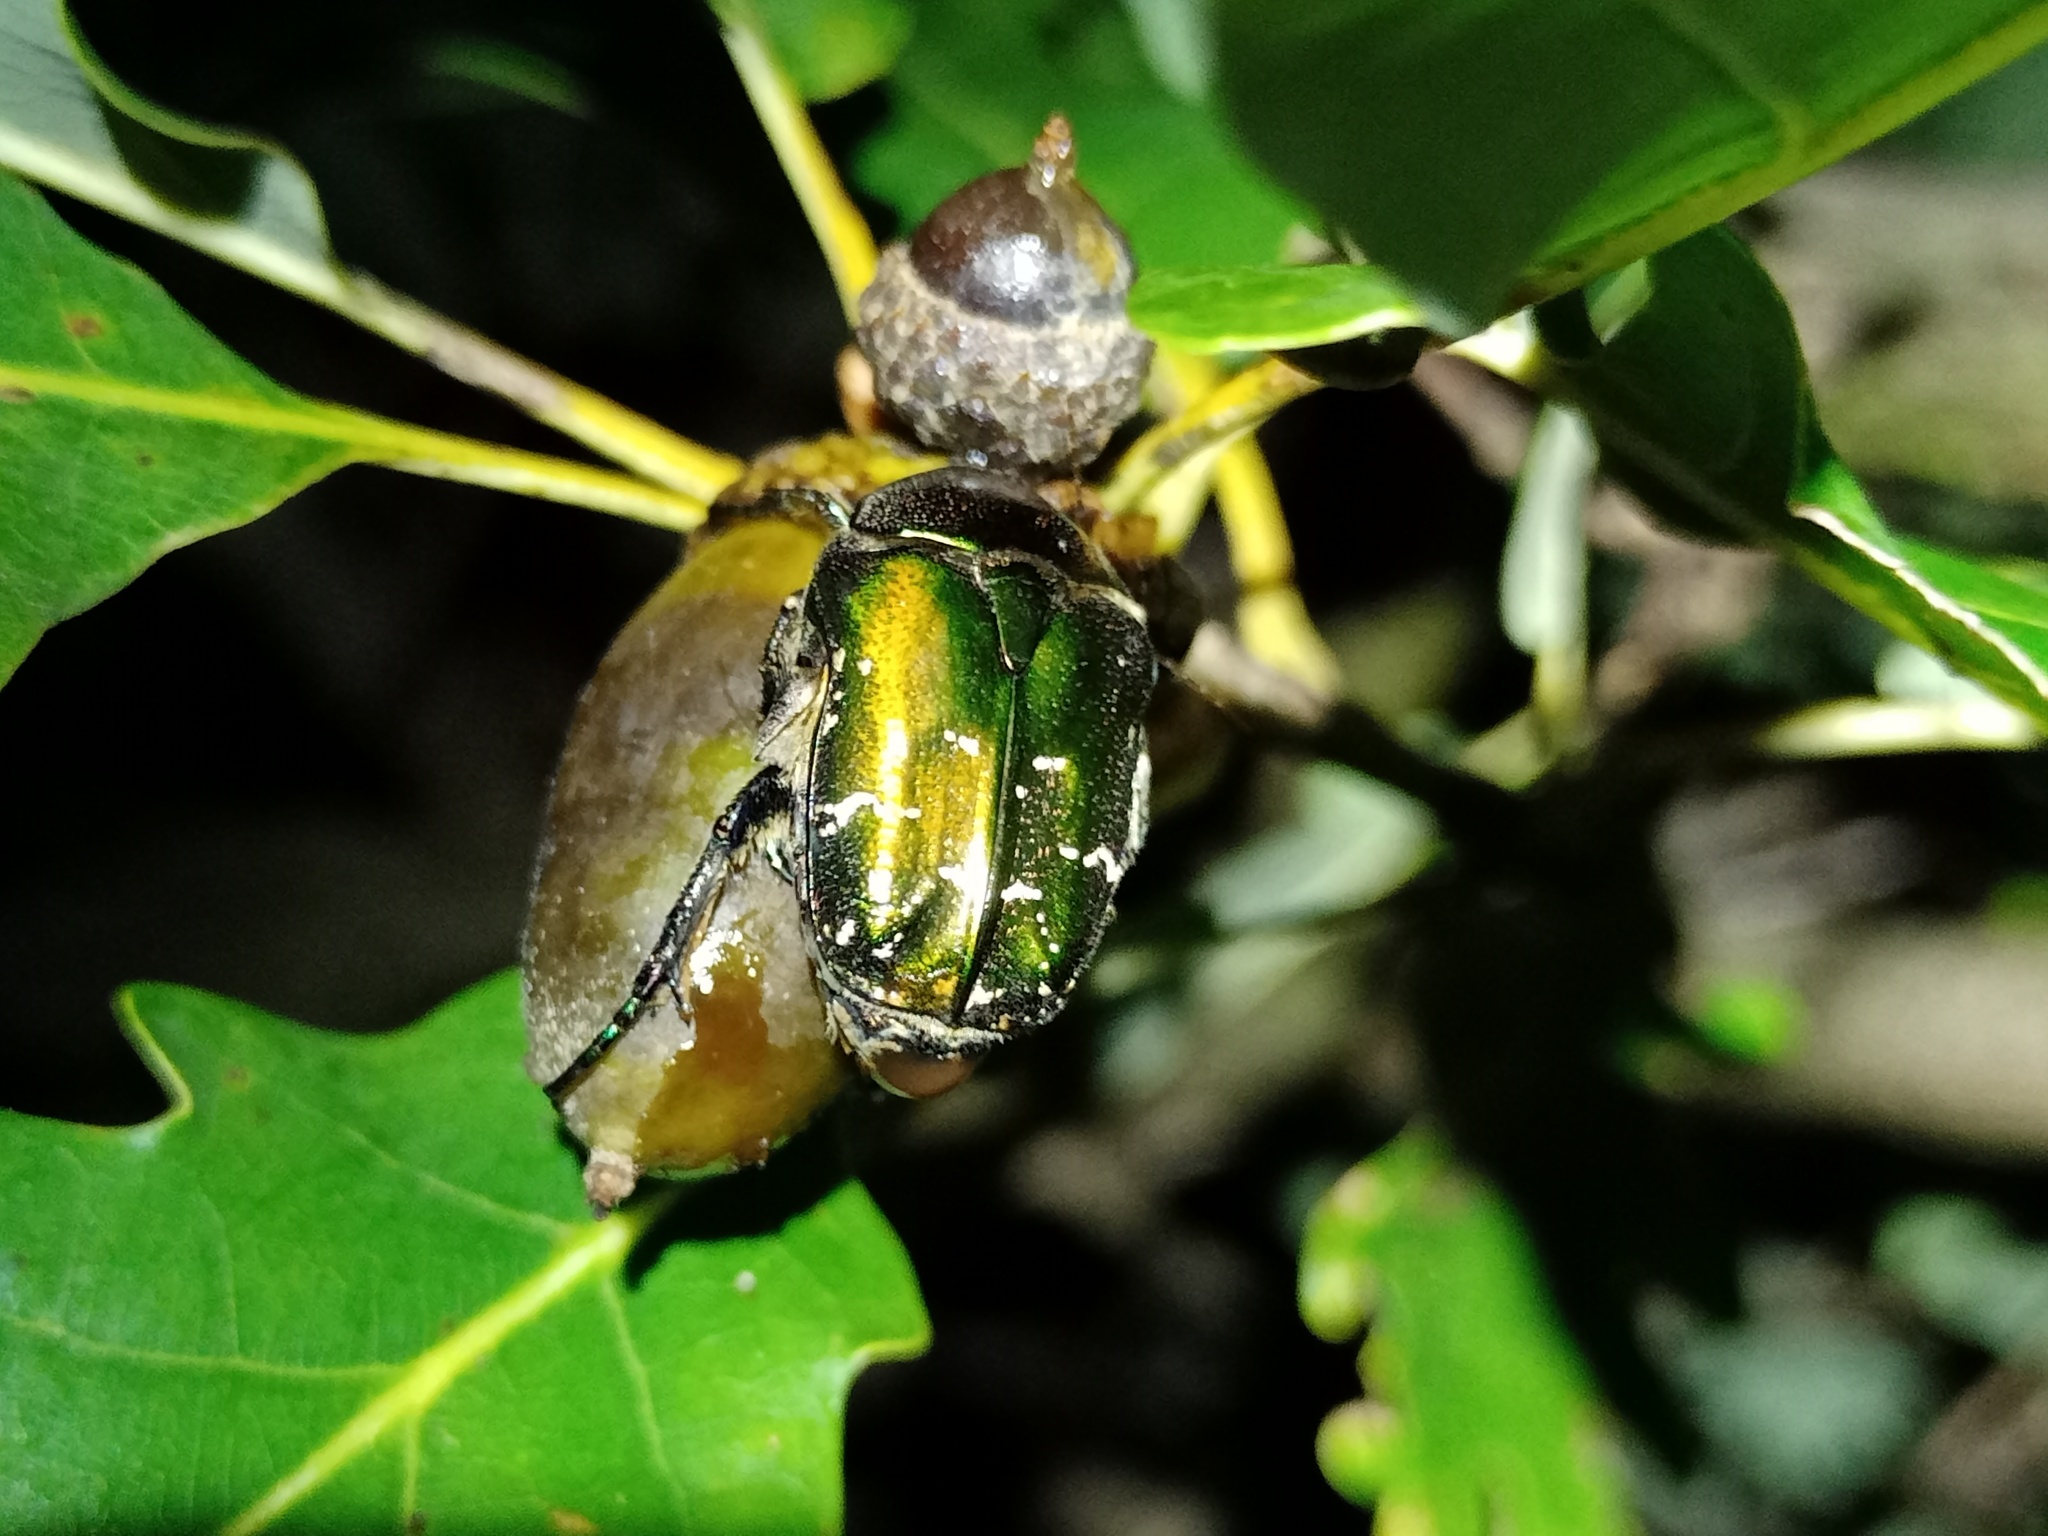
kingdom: Animalia
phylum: Arthropoda
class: Insecta
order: Coleoptera
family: Scarabaeidae
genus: Protaetia
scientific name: Protaetia cuprea
